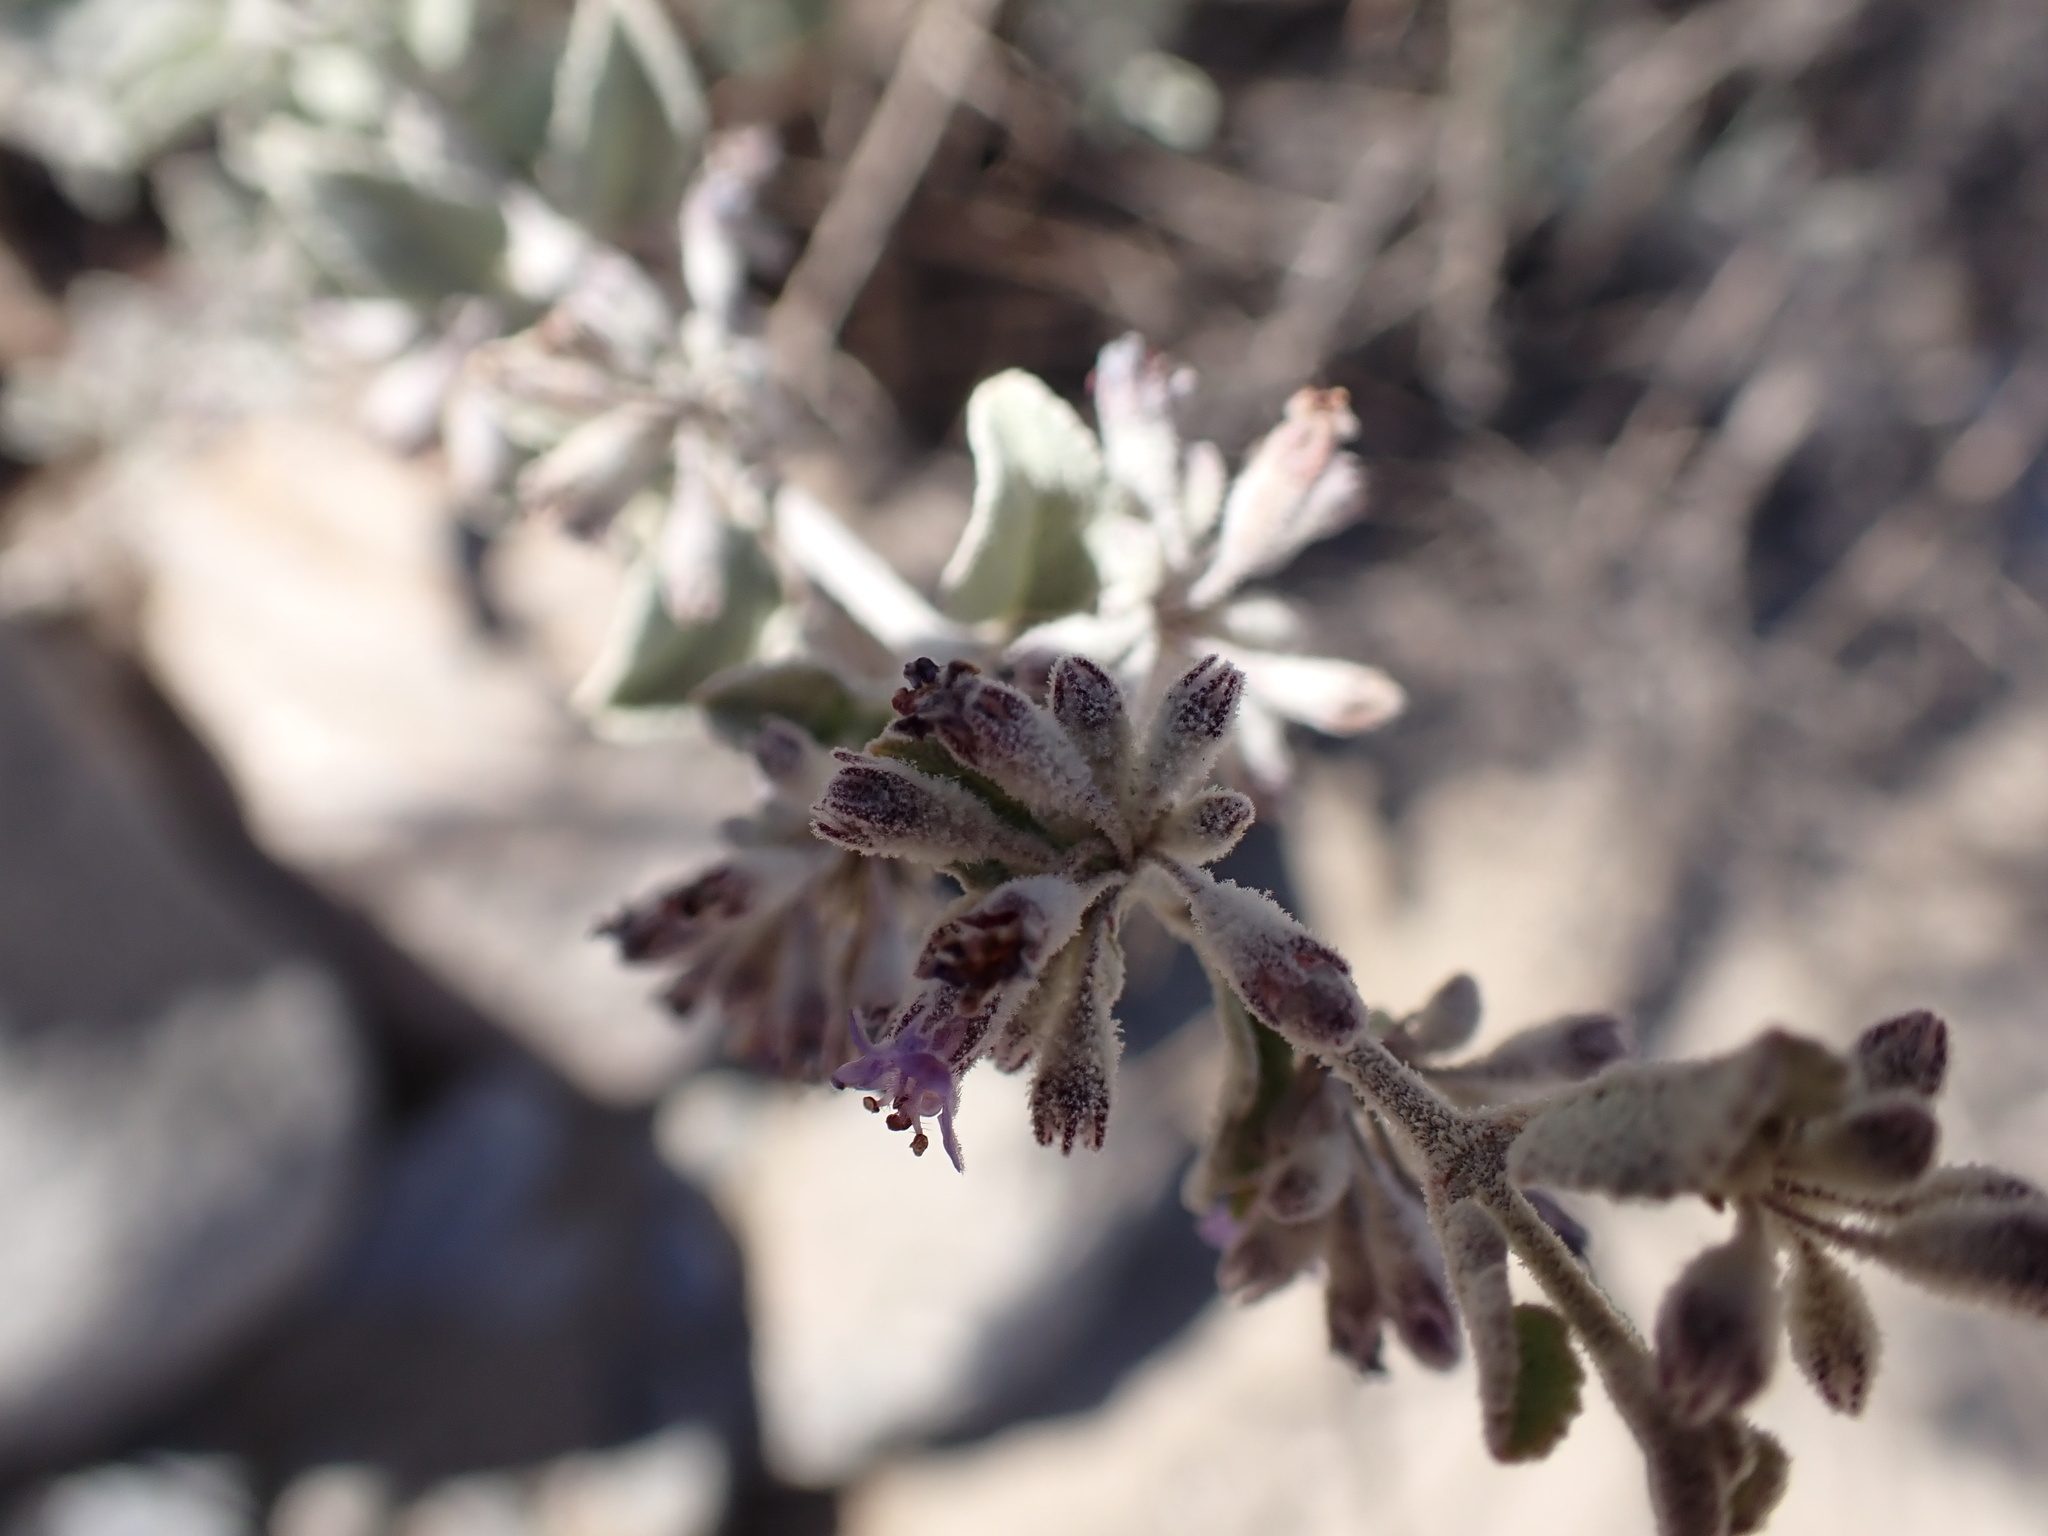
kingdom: Plantae
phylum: Tracheophyta
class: Magnoliopsida
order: Lamiales
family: Lamiaceae
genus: Condea
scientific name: Condea emoryi
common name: Chia
